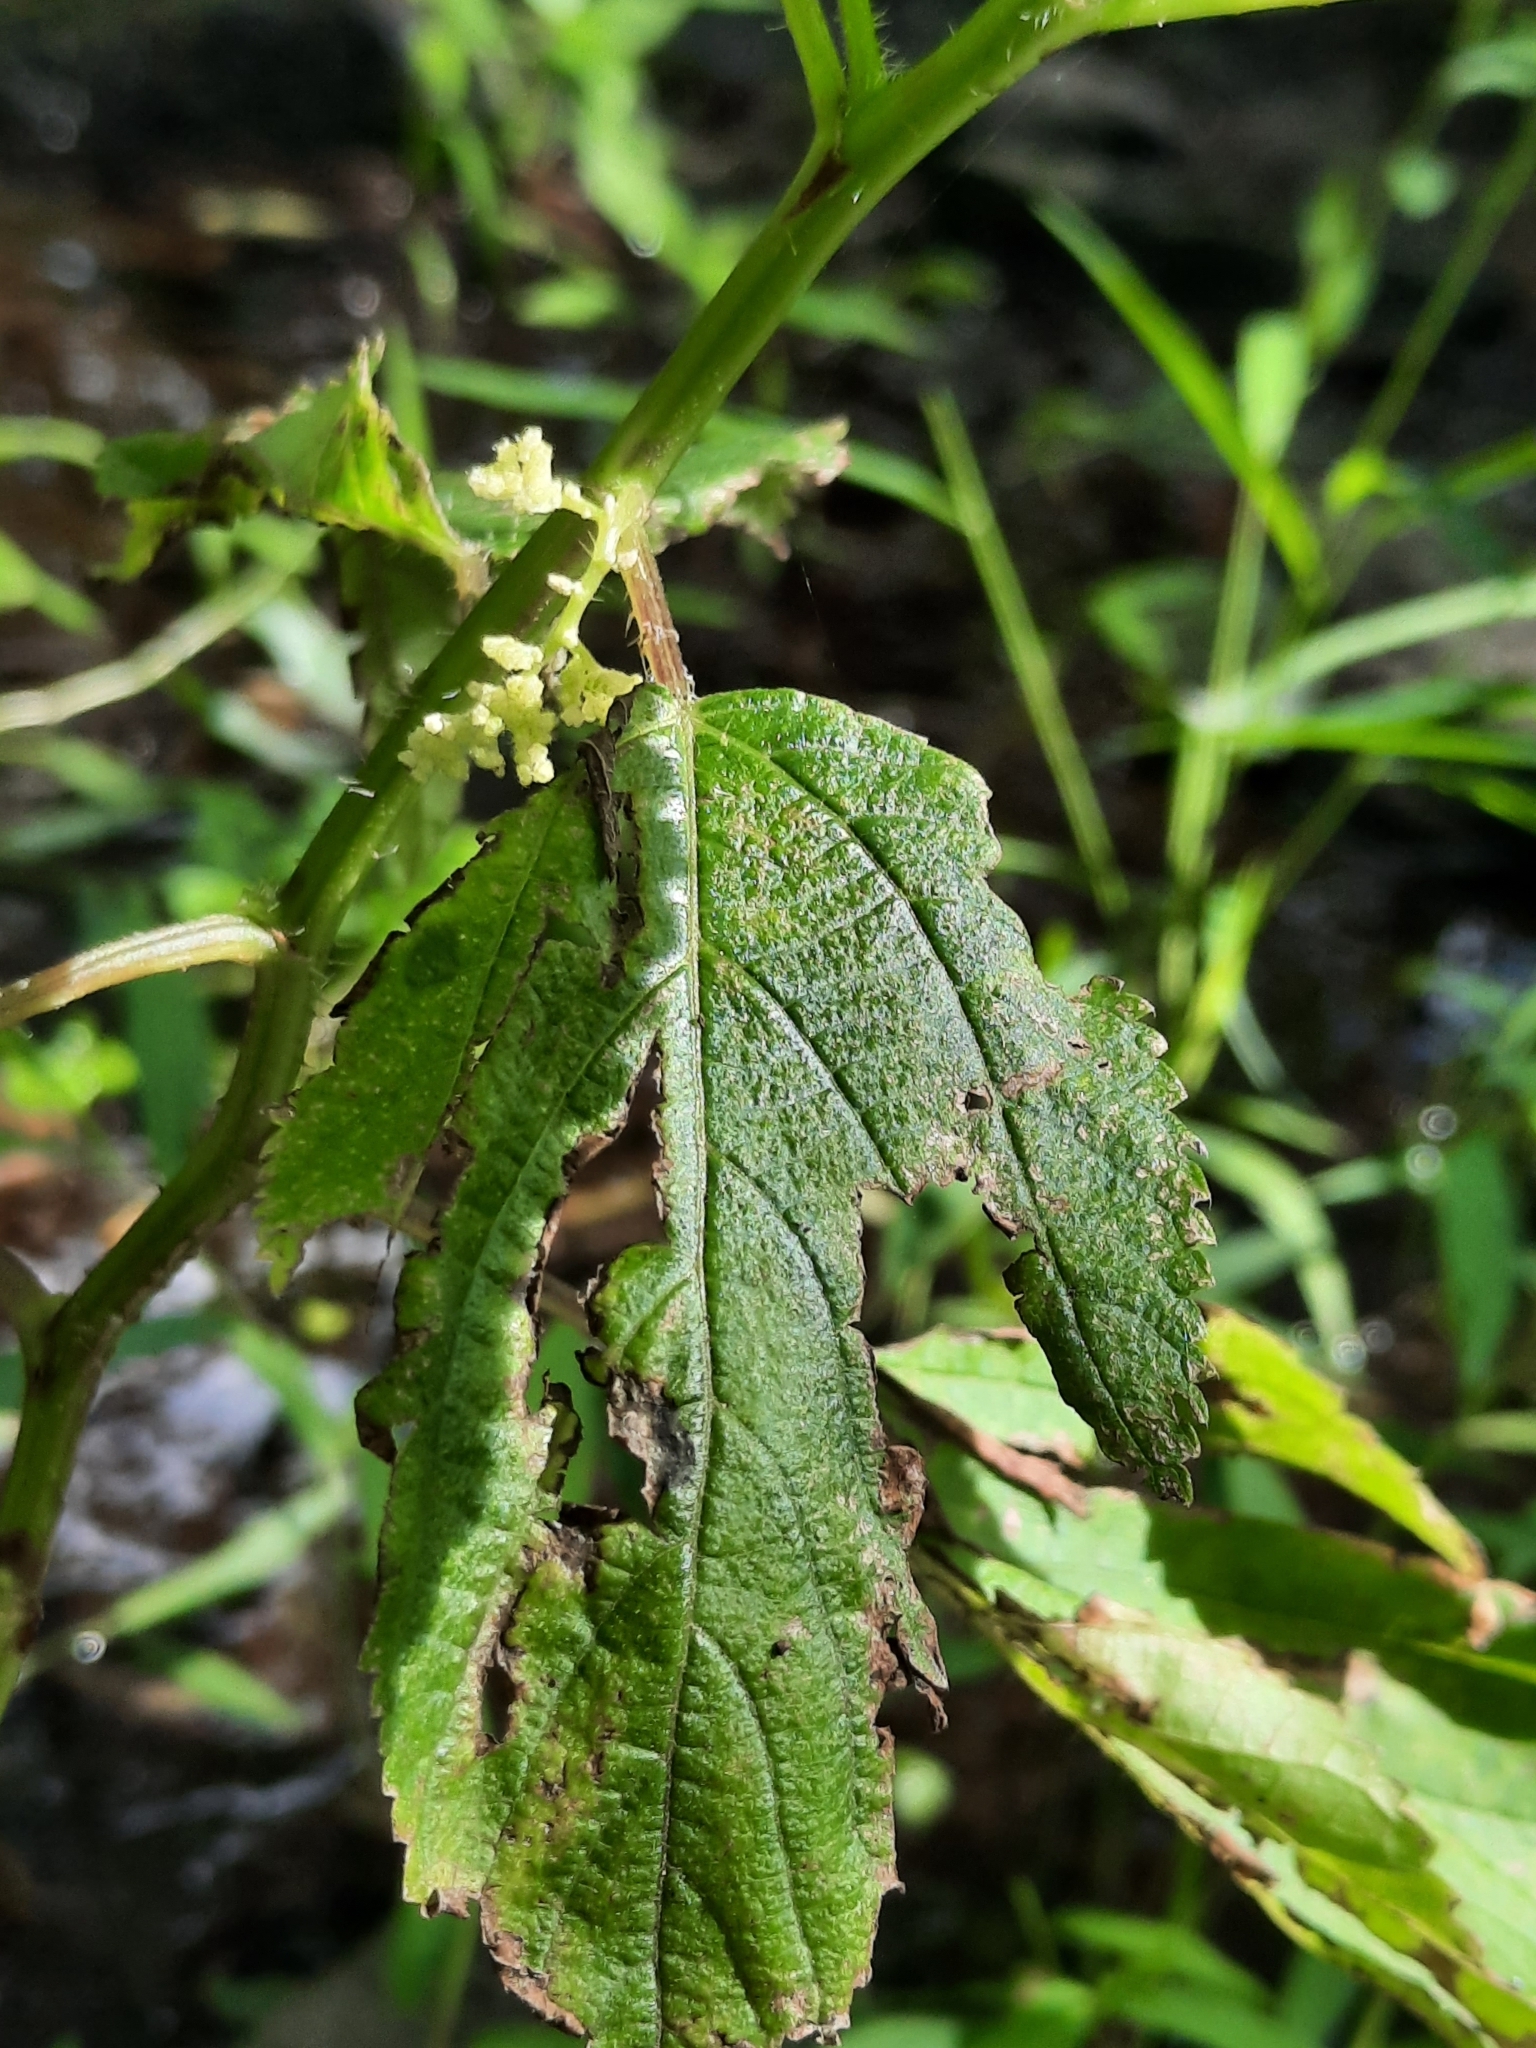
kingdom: Plantae
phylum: Tracheophyta
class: Magnoliopsida
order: Rosales
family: Urticaceae
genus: Laportea
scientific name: Laportea canadensis
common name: Canada nettle
